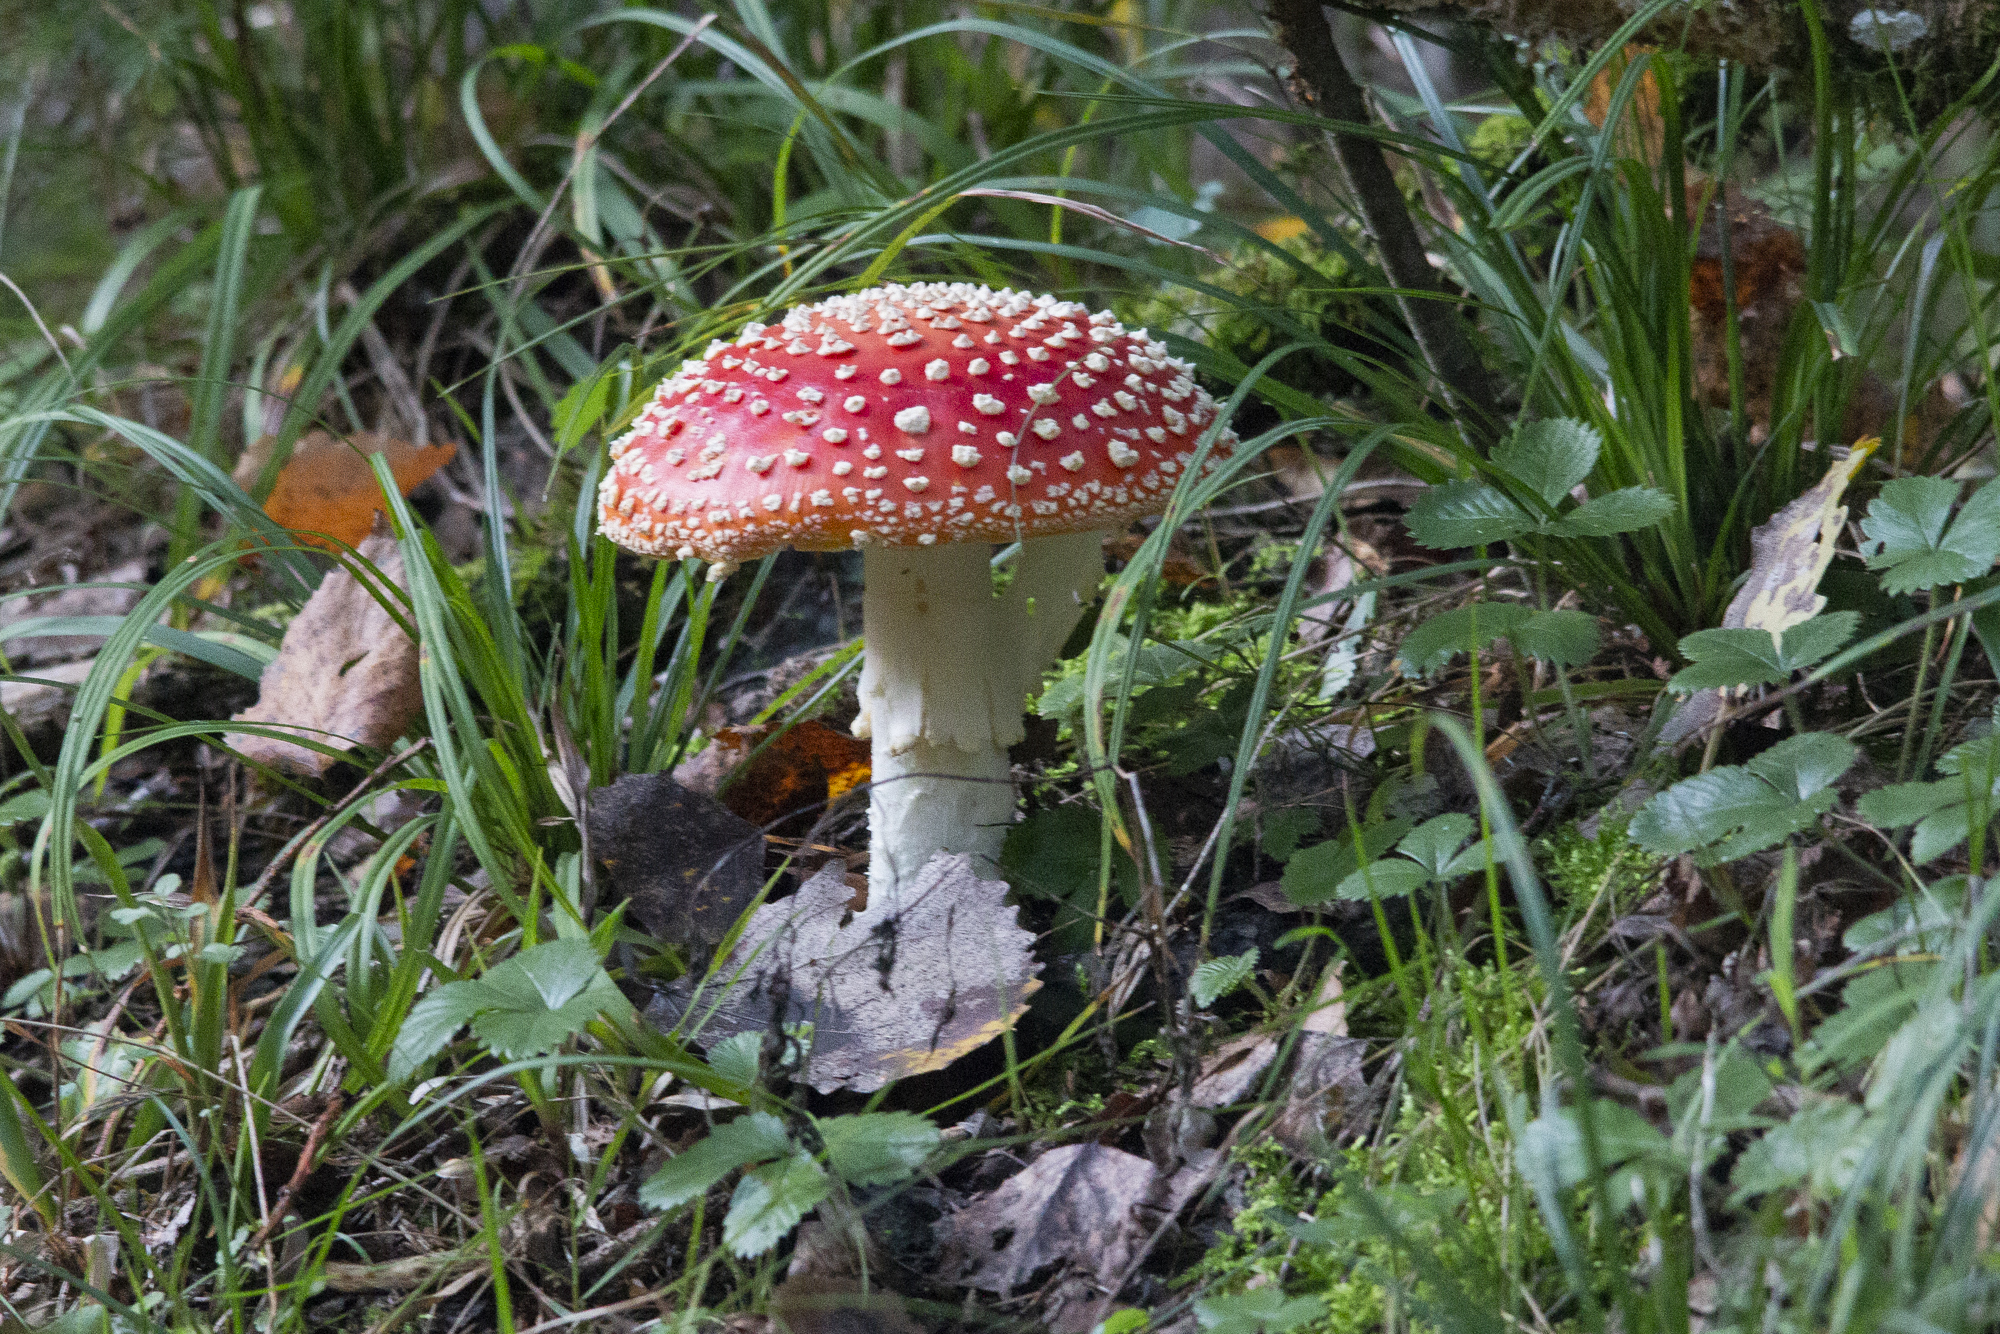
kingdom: Fungi
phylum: Basidiomycota
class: Agaricomycetes
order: Agaricales
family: Amanitaceae
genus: Amanita
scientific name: Amanita muscaria
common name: Fly agaric
